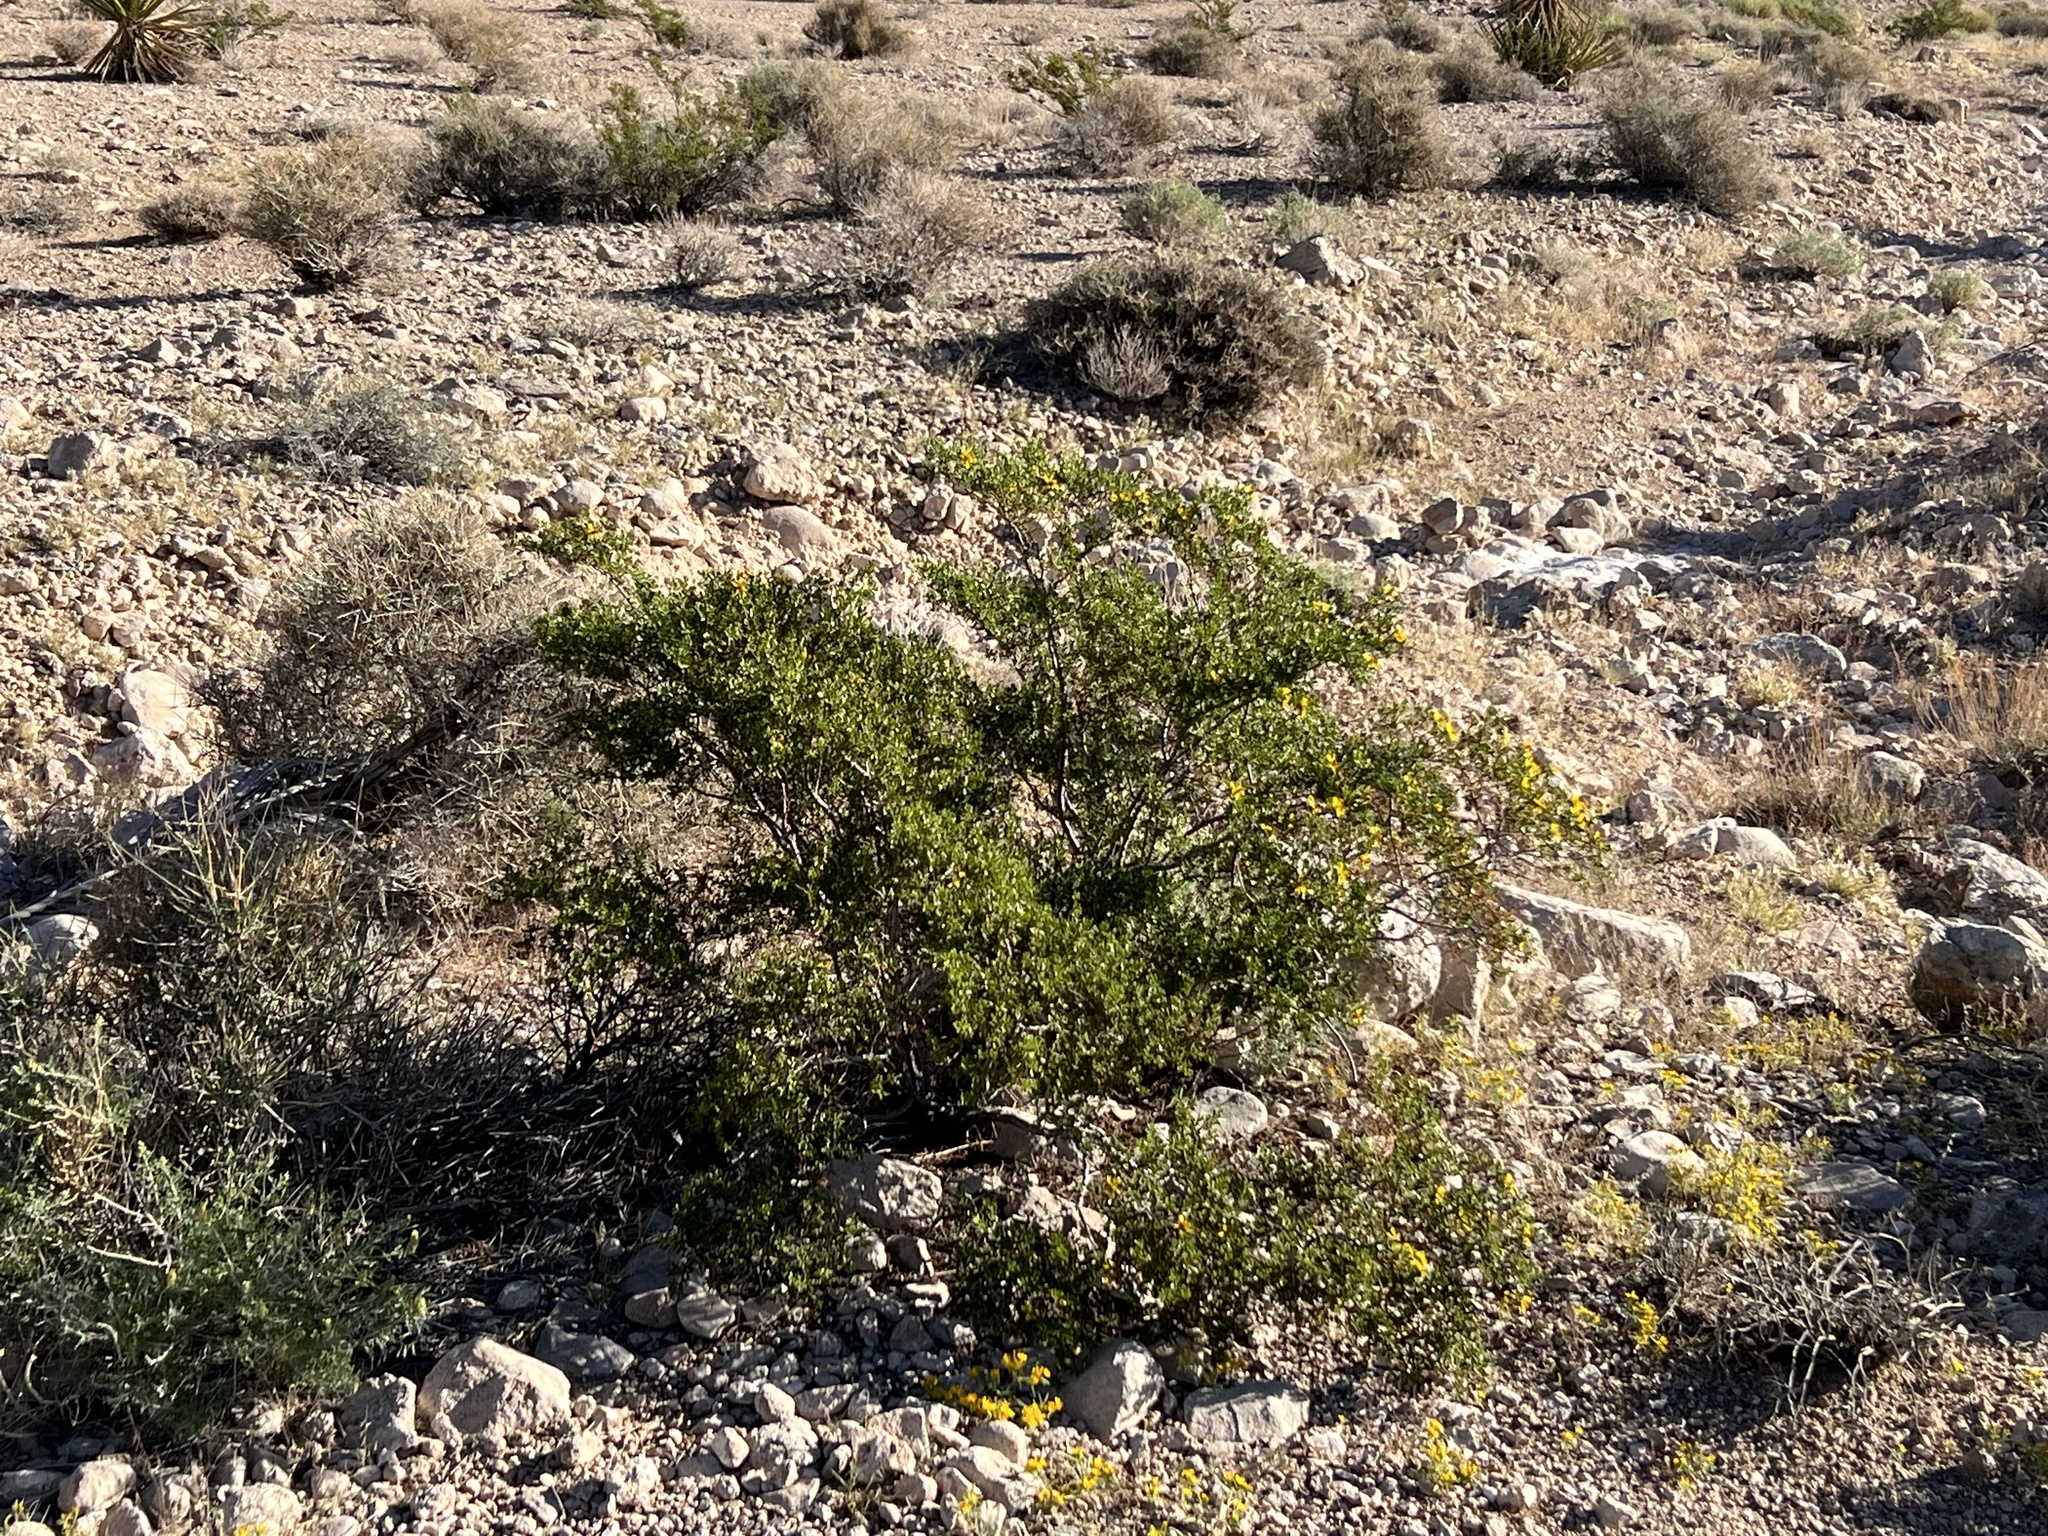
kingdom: Plantae
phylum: Tracheophyta
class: Magnoliopsida
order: Zygophyllales
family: Zygophyllaceae
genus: Larrea
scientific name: Larrea tridentata
